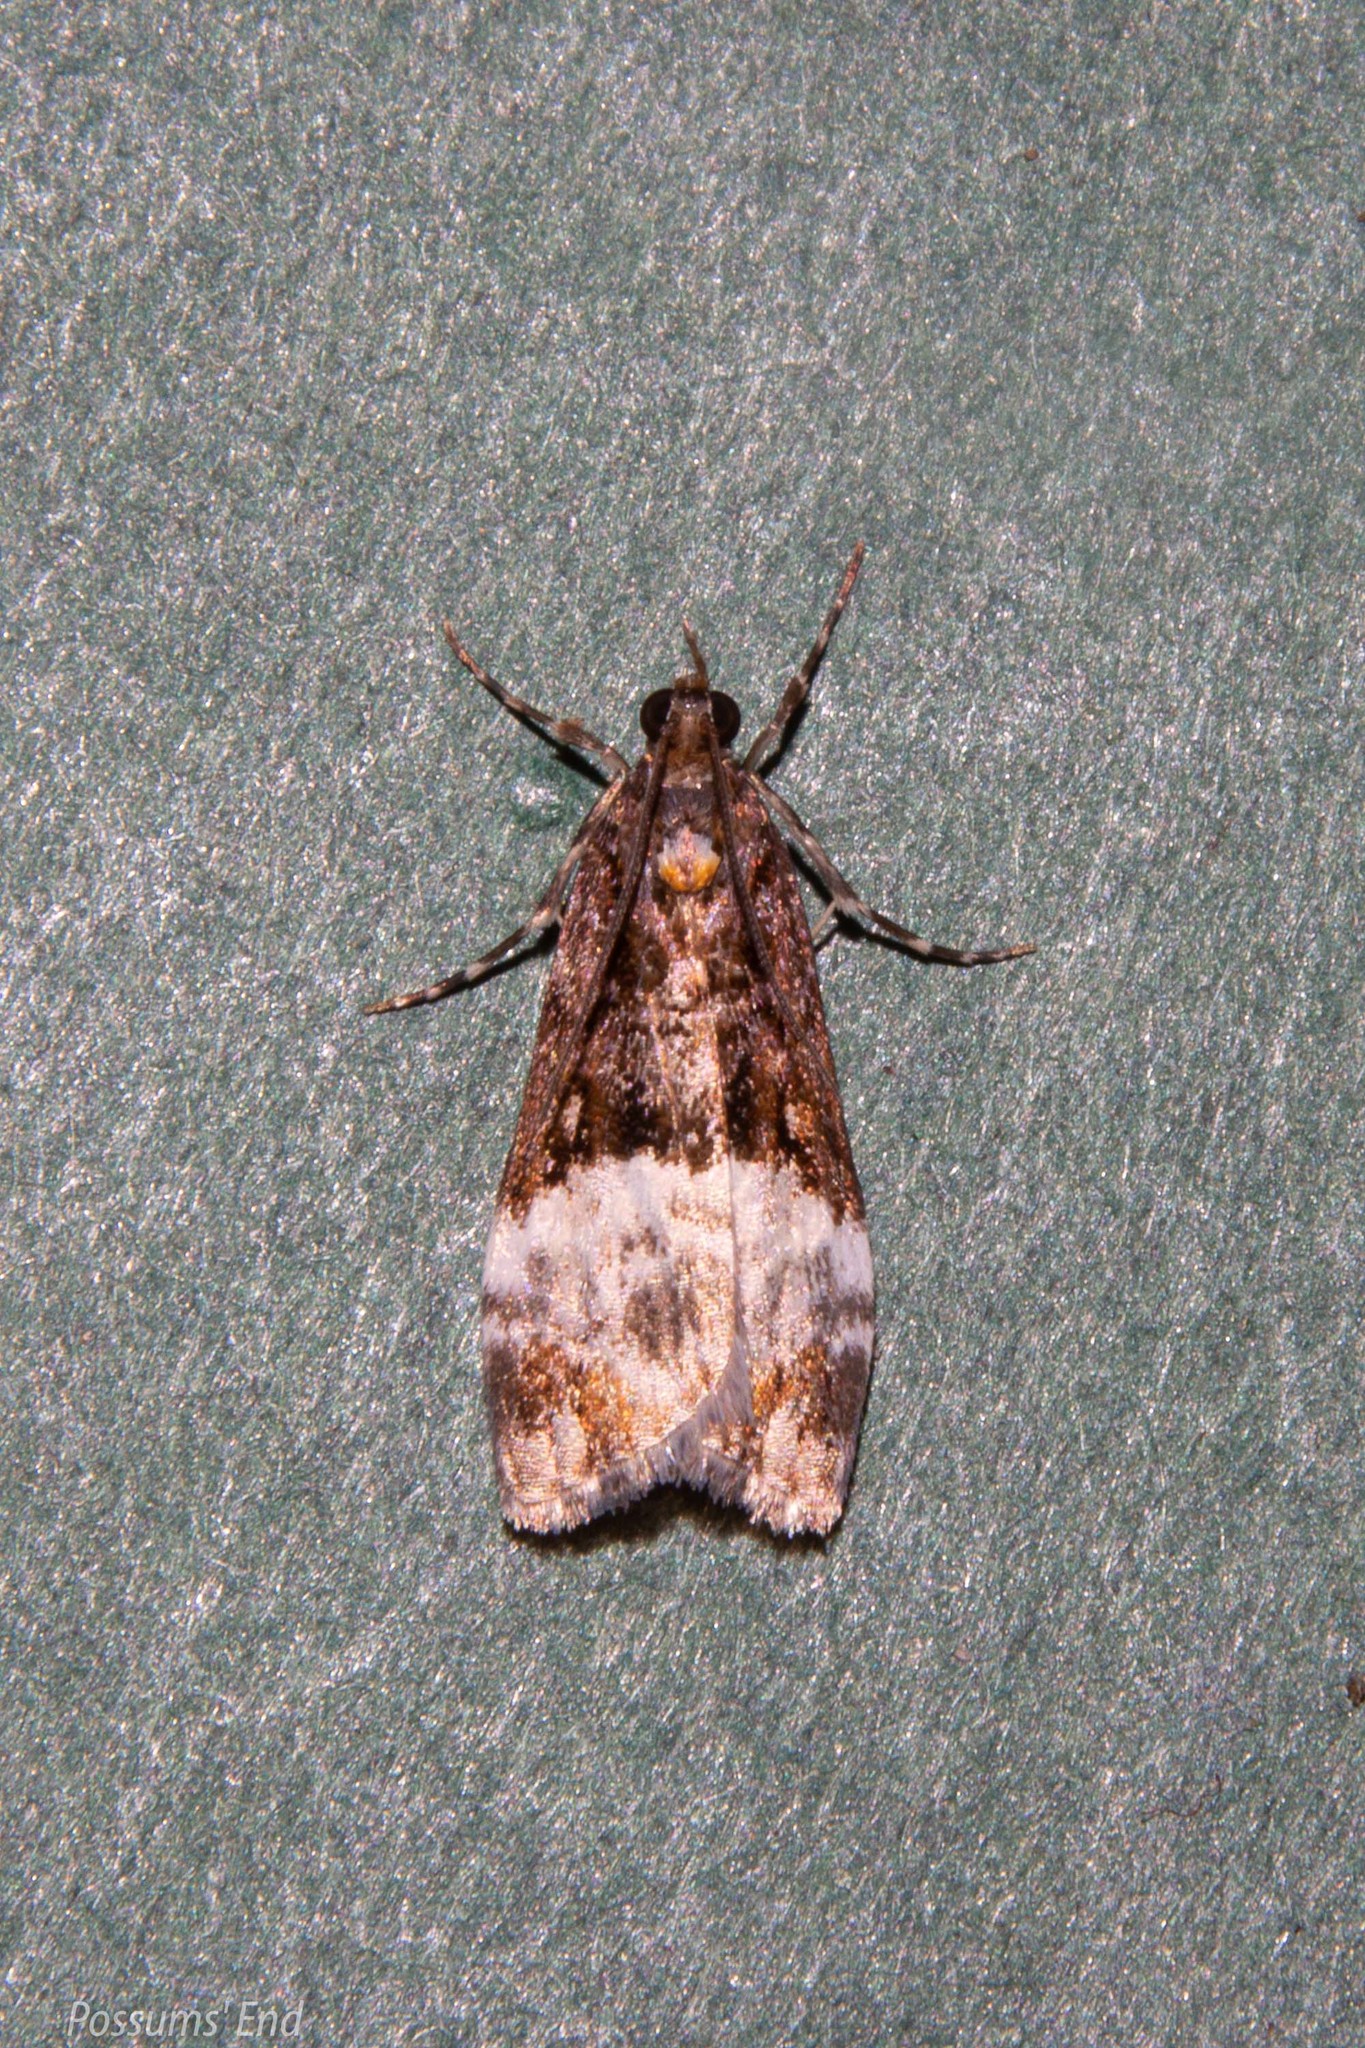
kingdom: Animalia
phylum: Arthropoda
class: Insecta
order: Lepidoptera
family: Crambidae
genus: Scoparia
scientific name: Scoparia minusculalis
